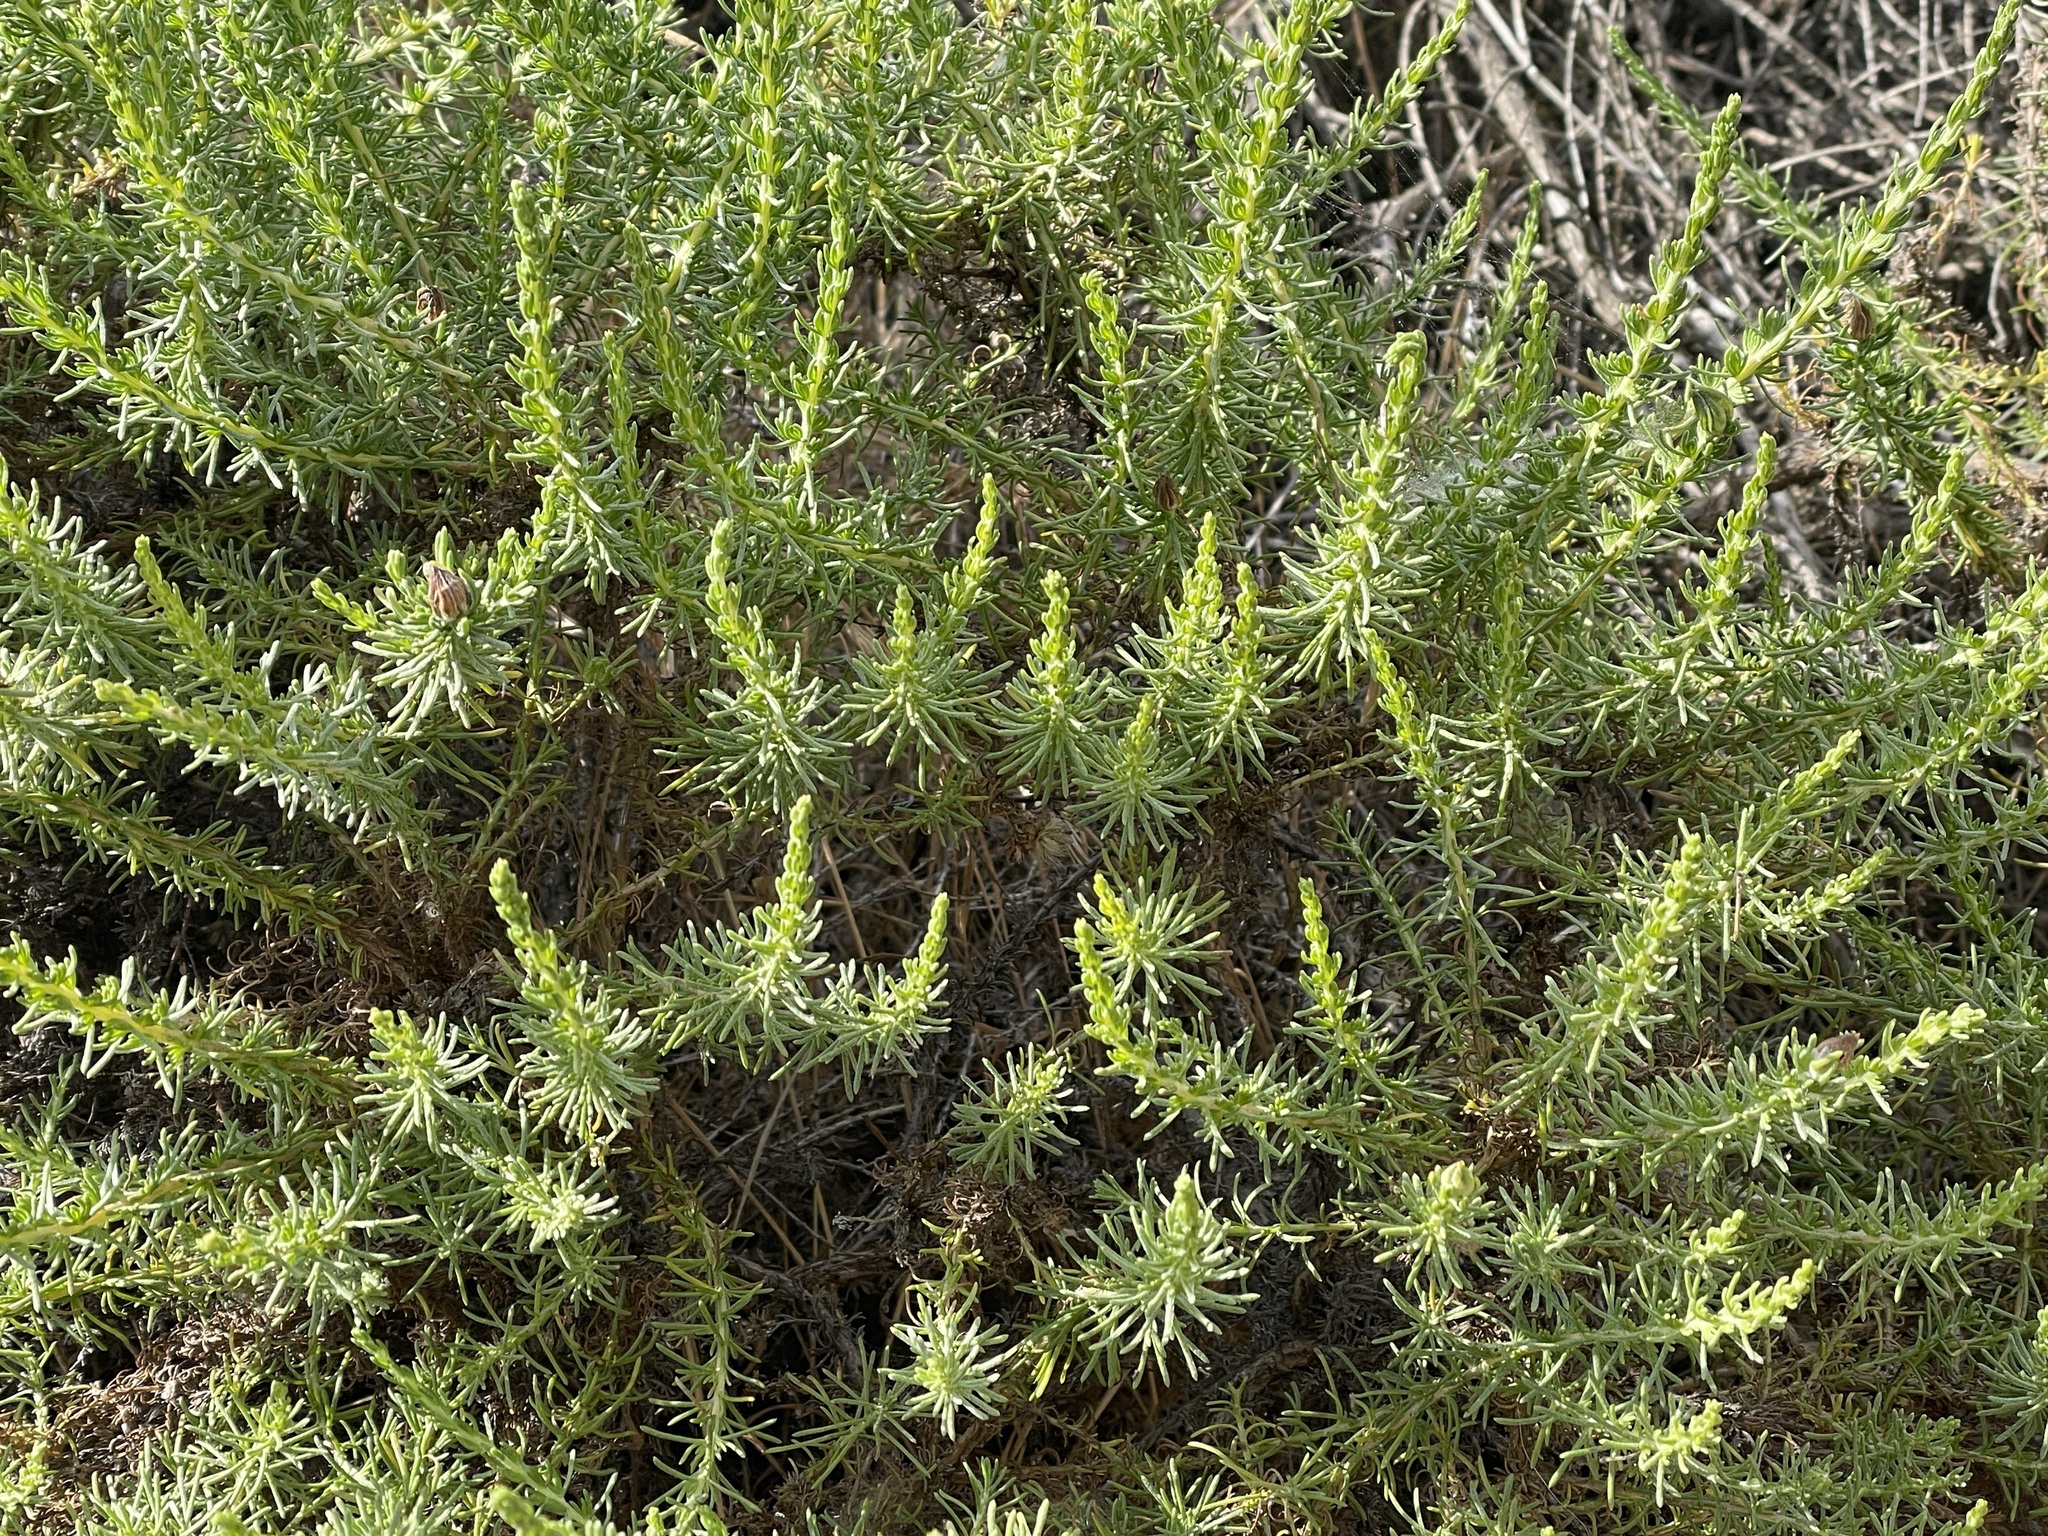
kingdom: Plantae
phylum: Tracheophyta
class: Magnoliopsida
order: Asterales
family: Asteraceae
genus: Ericameria
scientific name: Ericameria ericoides
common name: California goldenbush
